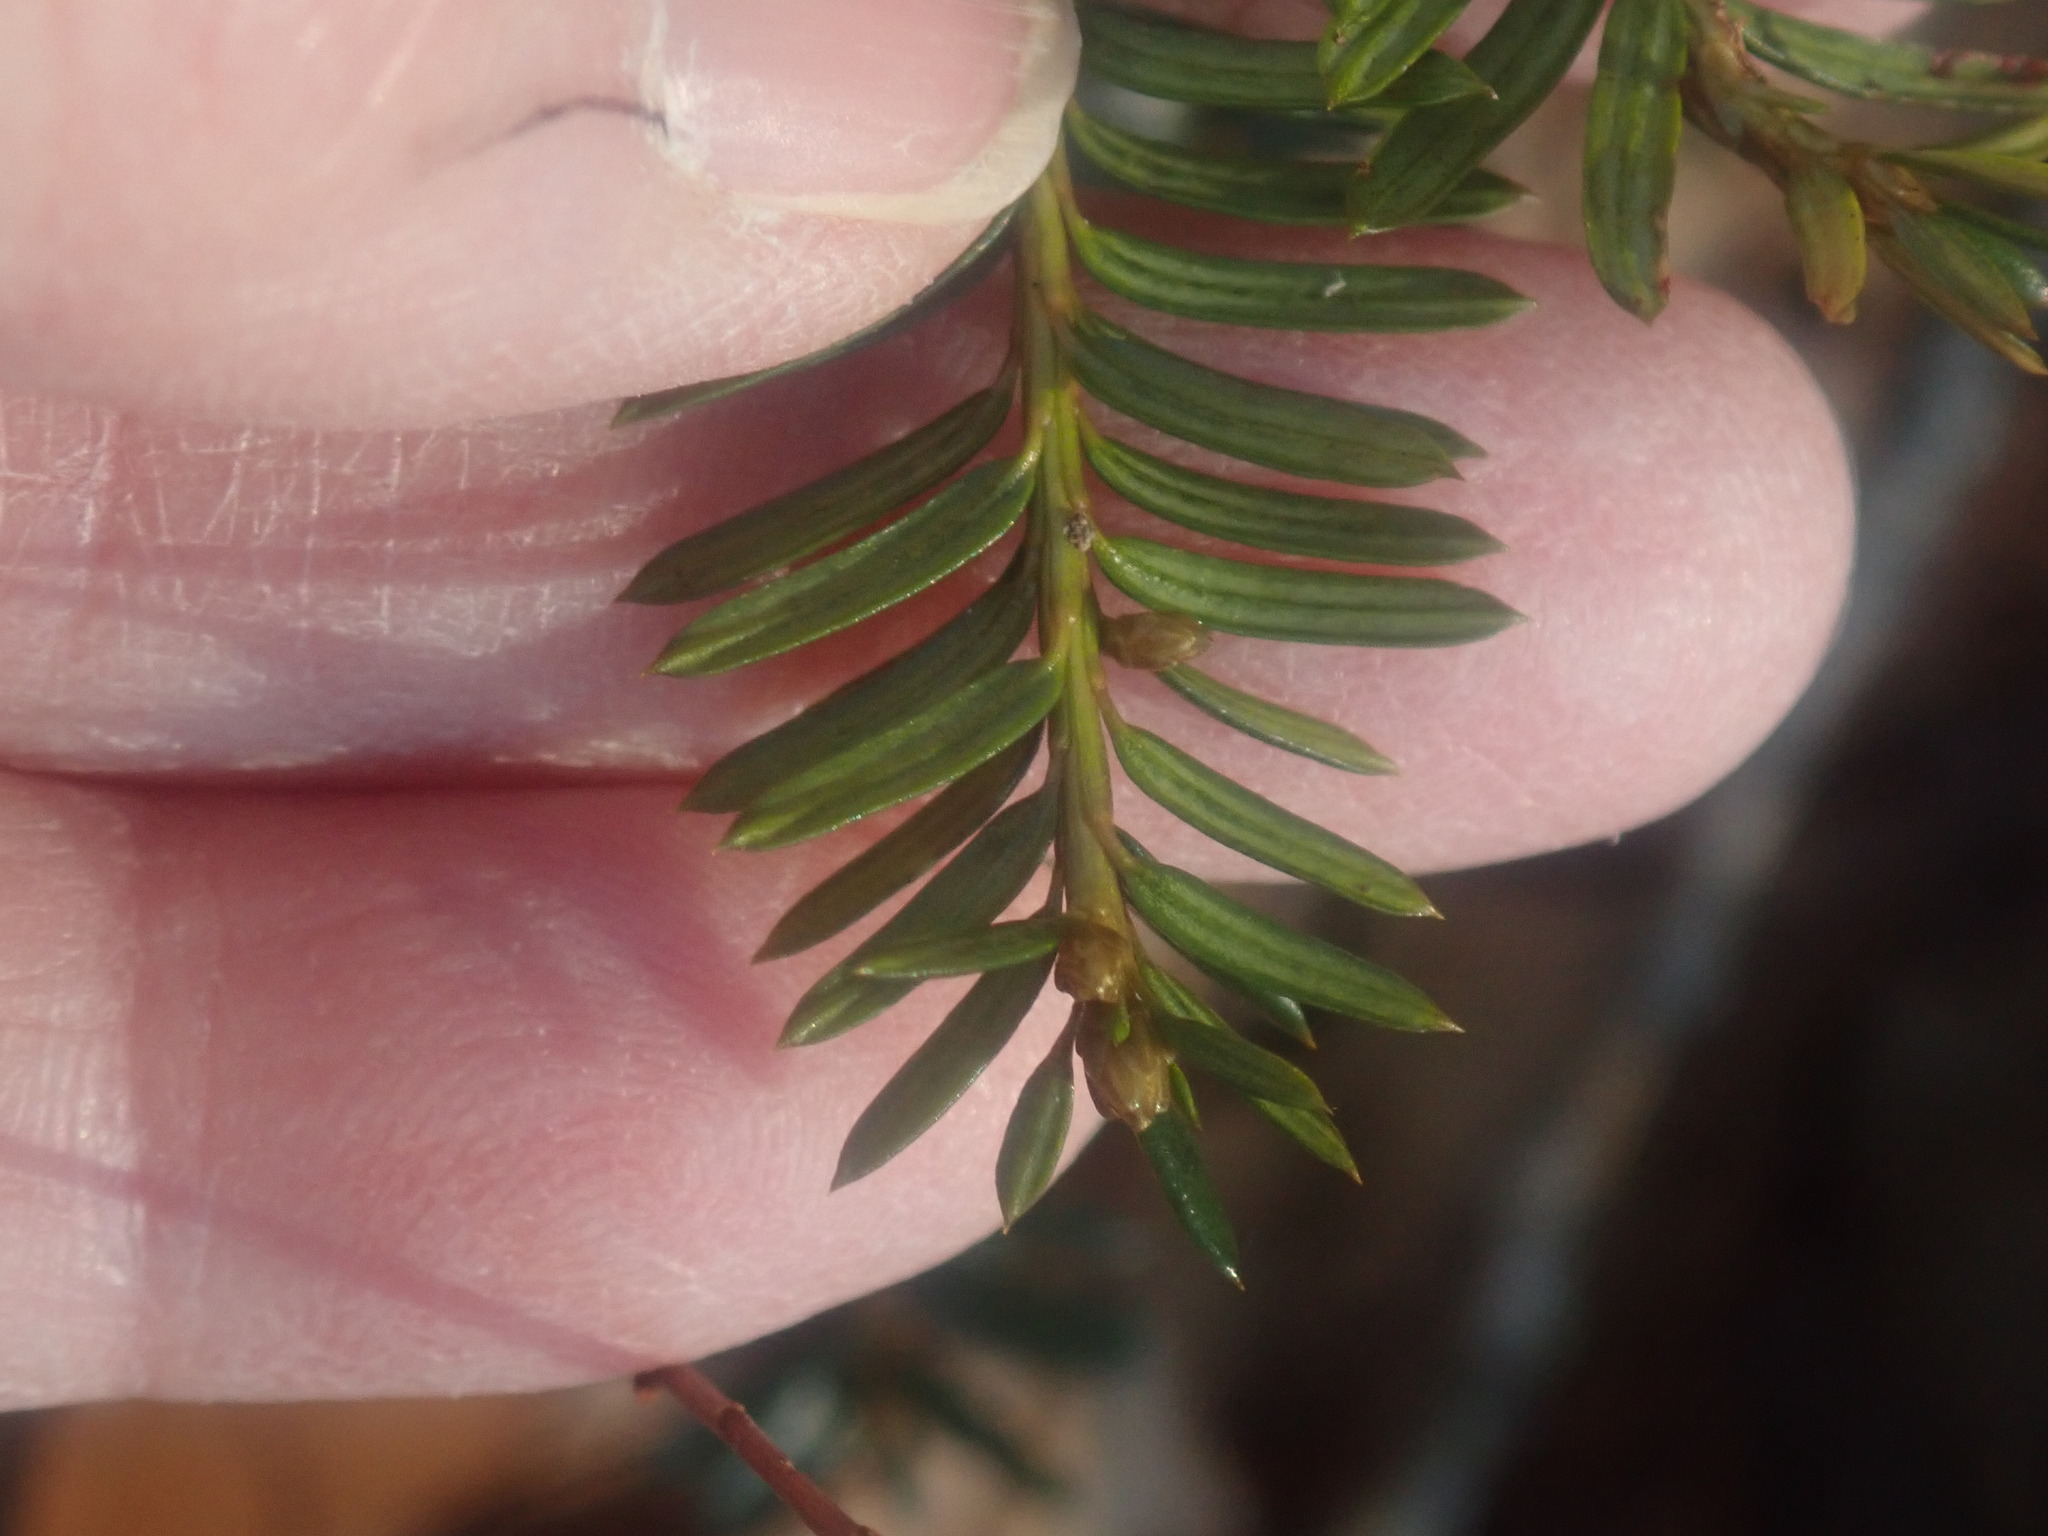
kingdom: Plantae
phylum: Tracheophyta
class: Pinopsida
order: Pinales
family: Taxaceae
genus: Taxus
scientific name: Taxus canadensis
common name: American yew
